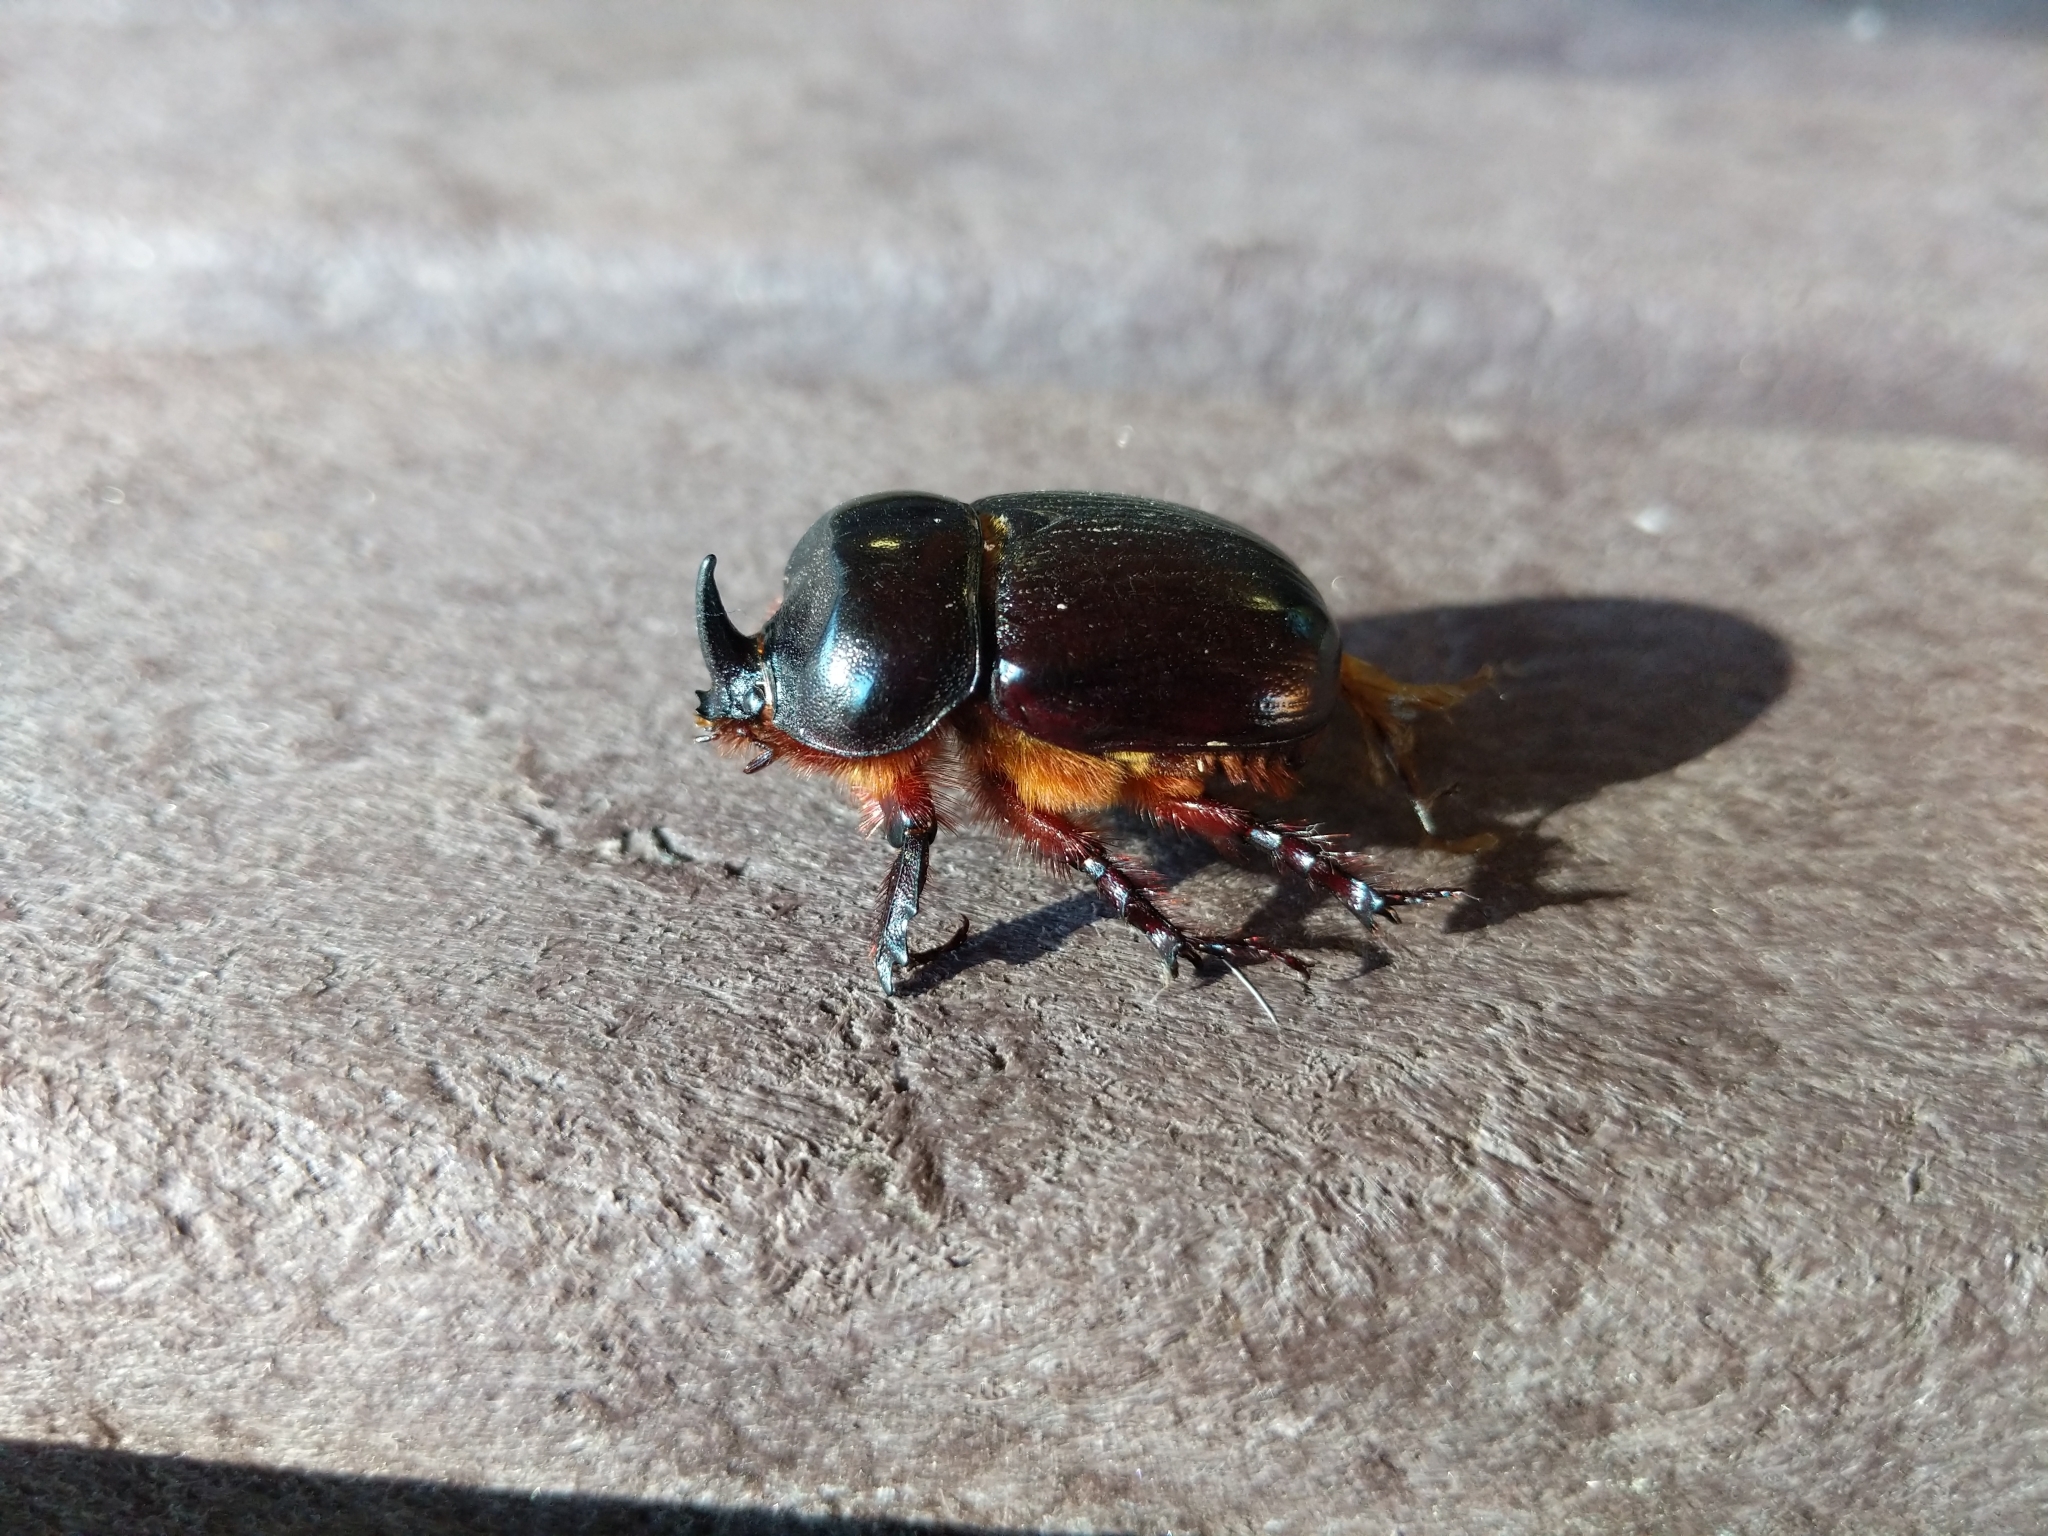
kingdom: Animalia
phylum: Arthropoda
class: Insecta
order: Coleoptera
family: Scarabaeidae
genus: Xyloryctes
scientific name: Xyloryctes jamaicensis
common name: Eastern rhinoceros beetle
